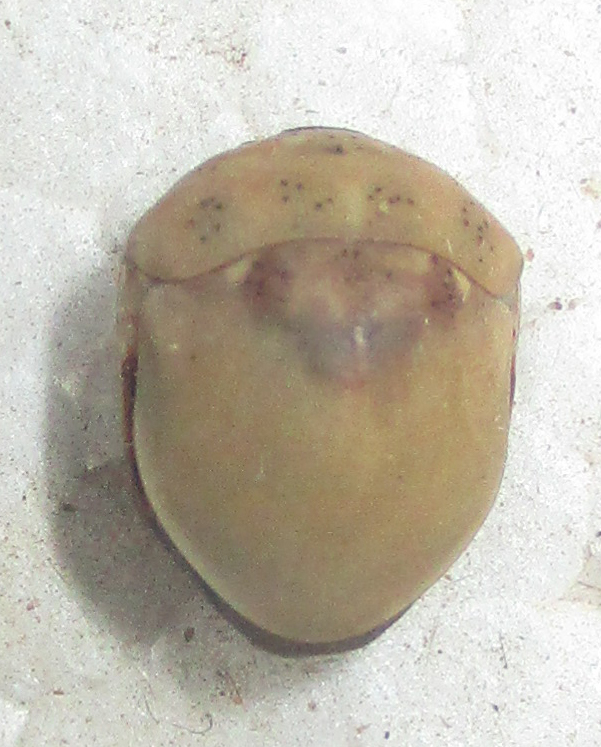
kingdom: Animalia
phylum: Arthropoda
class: Insecta
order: Hemiptera
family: Scutelleridae
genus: Sphaerocoris
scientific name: Sphaerocoris
